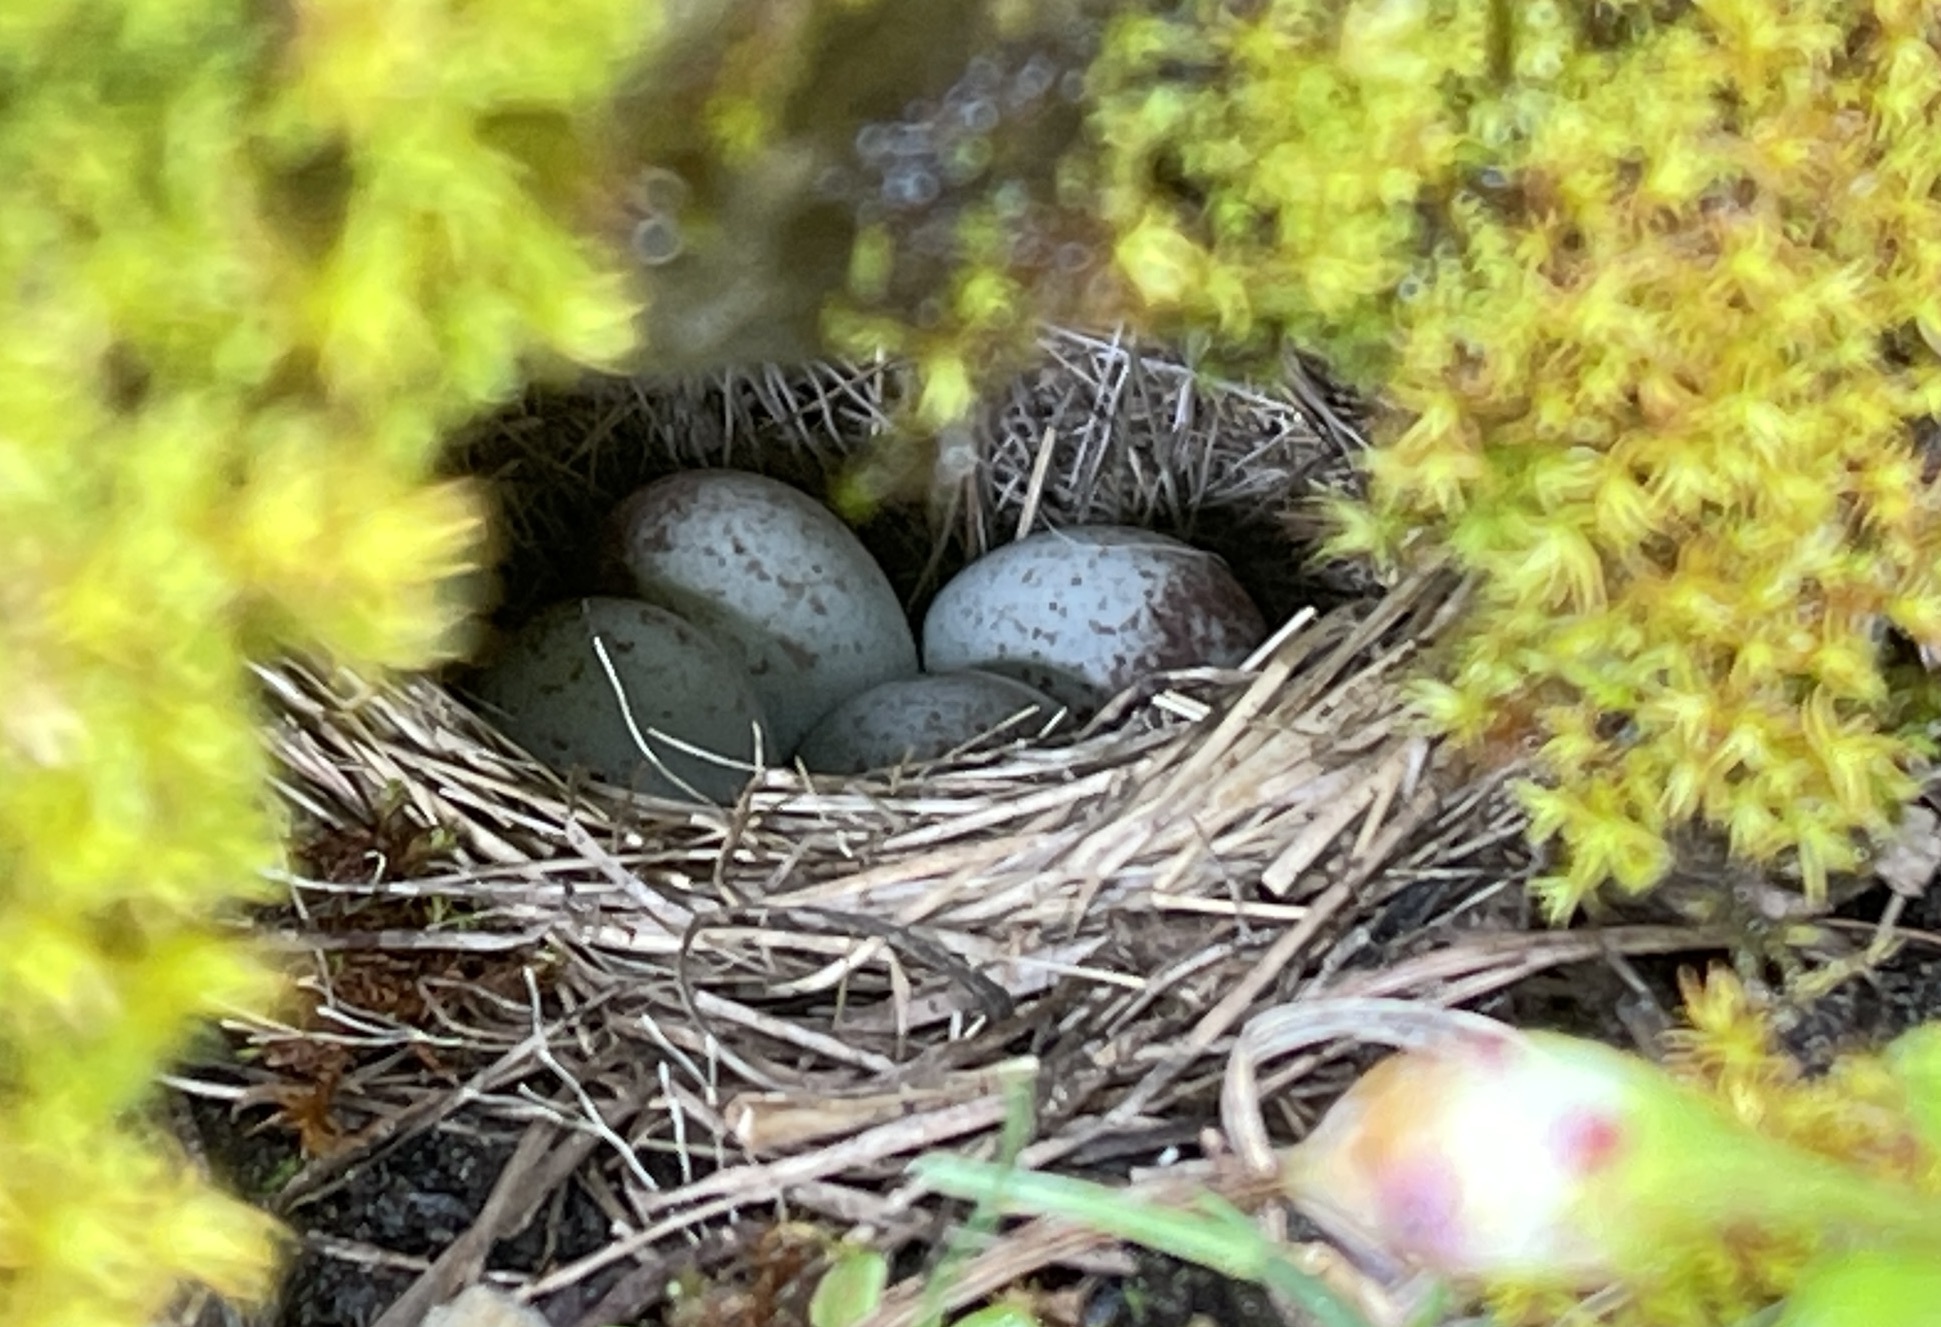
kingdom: Animalia
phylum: Chordata
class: Aves
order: Passeriformes
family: Passerellidae
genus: Junco
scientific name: Junco hyemalis
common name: Dark-eyed junco
